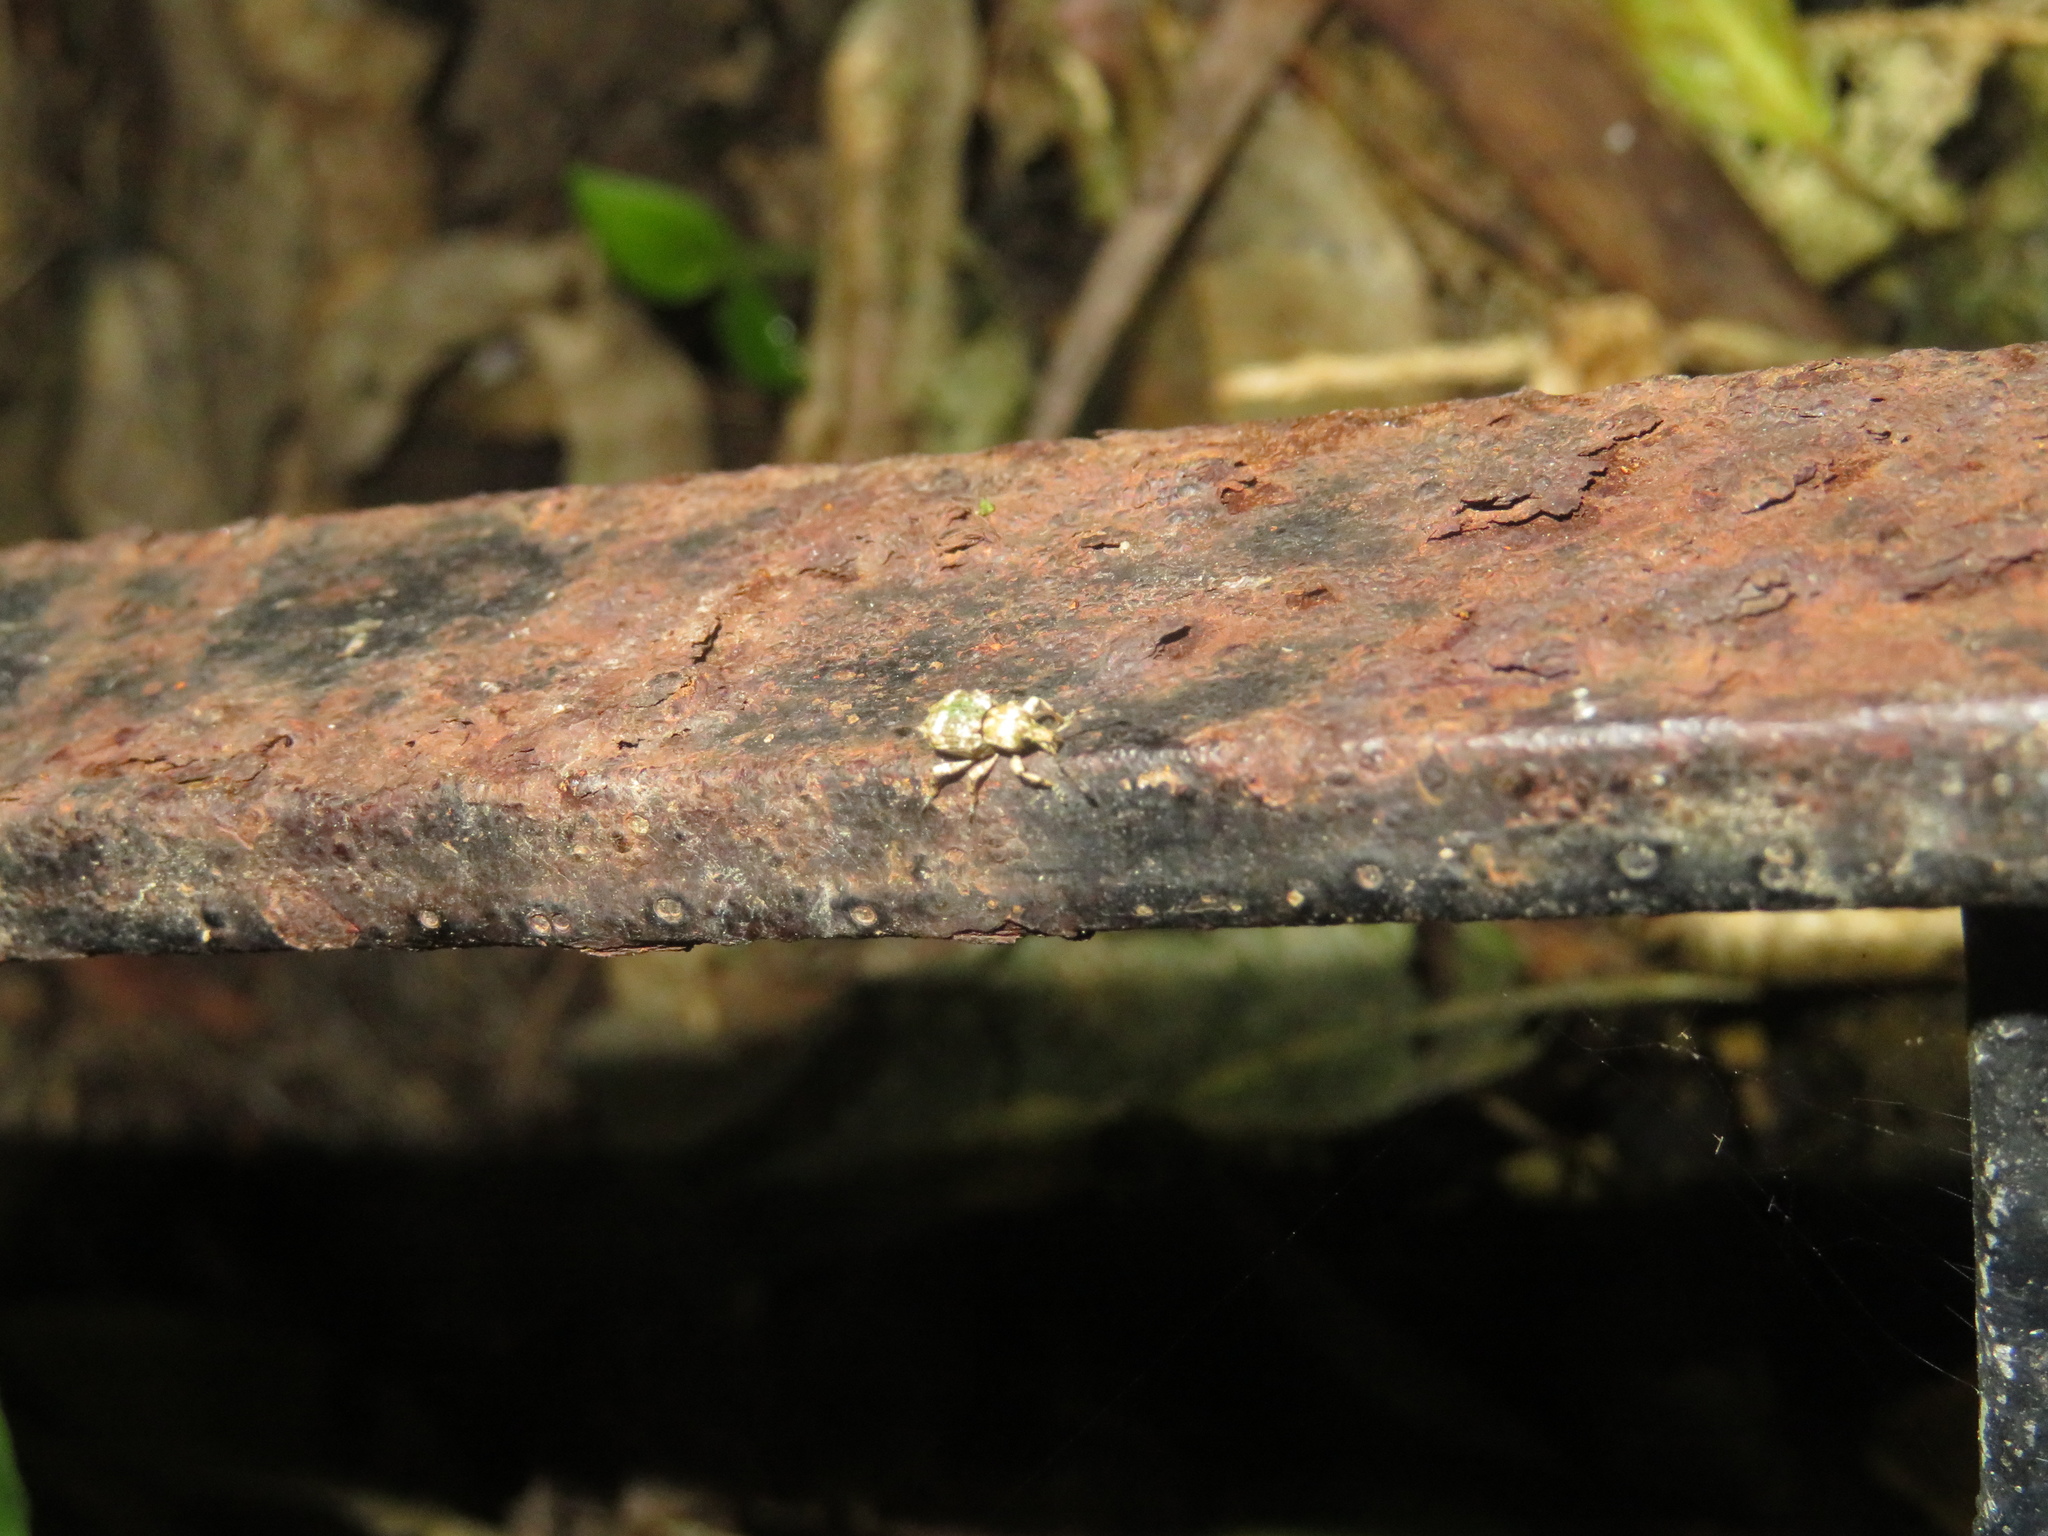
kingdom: Animalia
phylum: Arthropoda
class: Insecta
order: Coleoptera
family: Curculionidae
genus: Brachyolus
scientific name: Brachyolus punctatus
